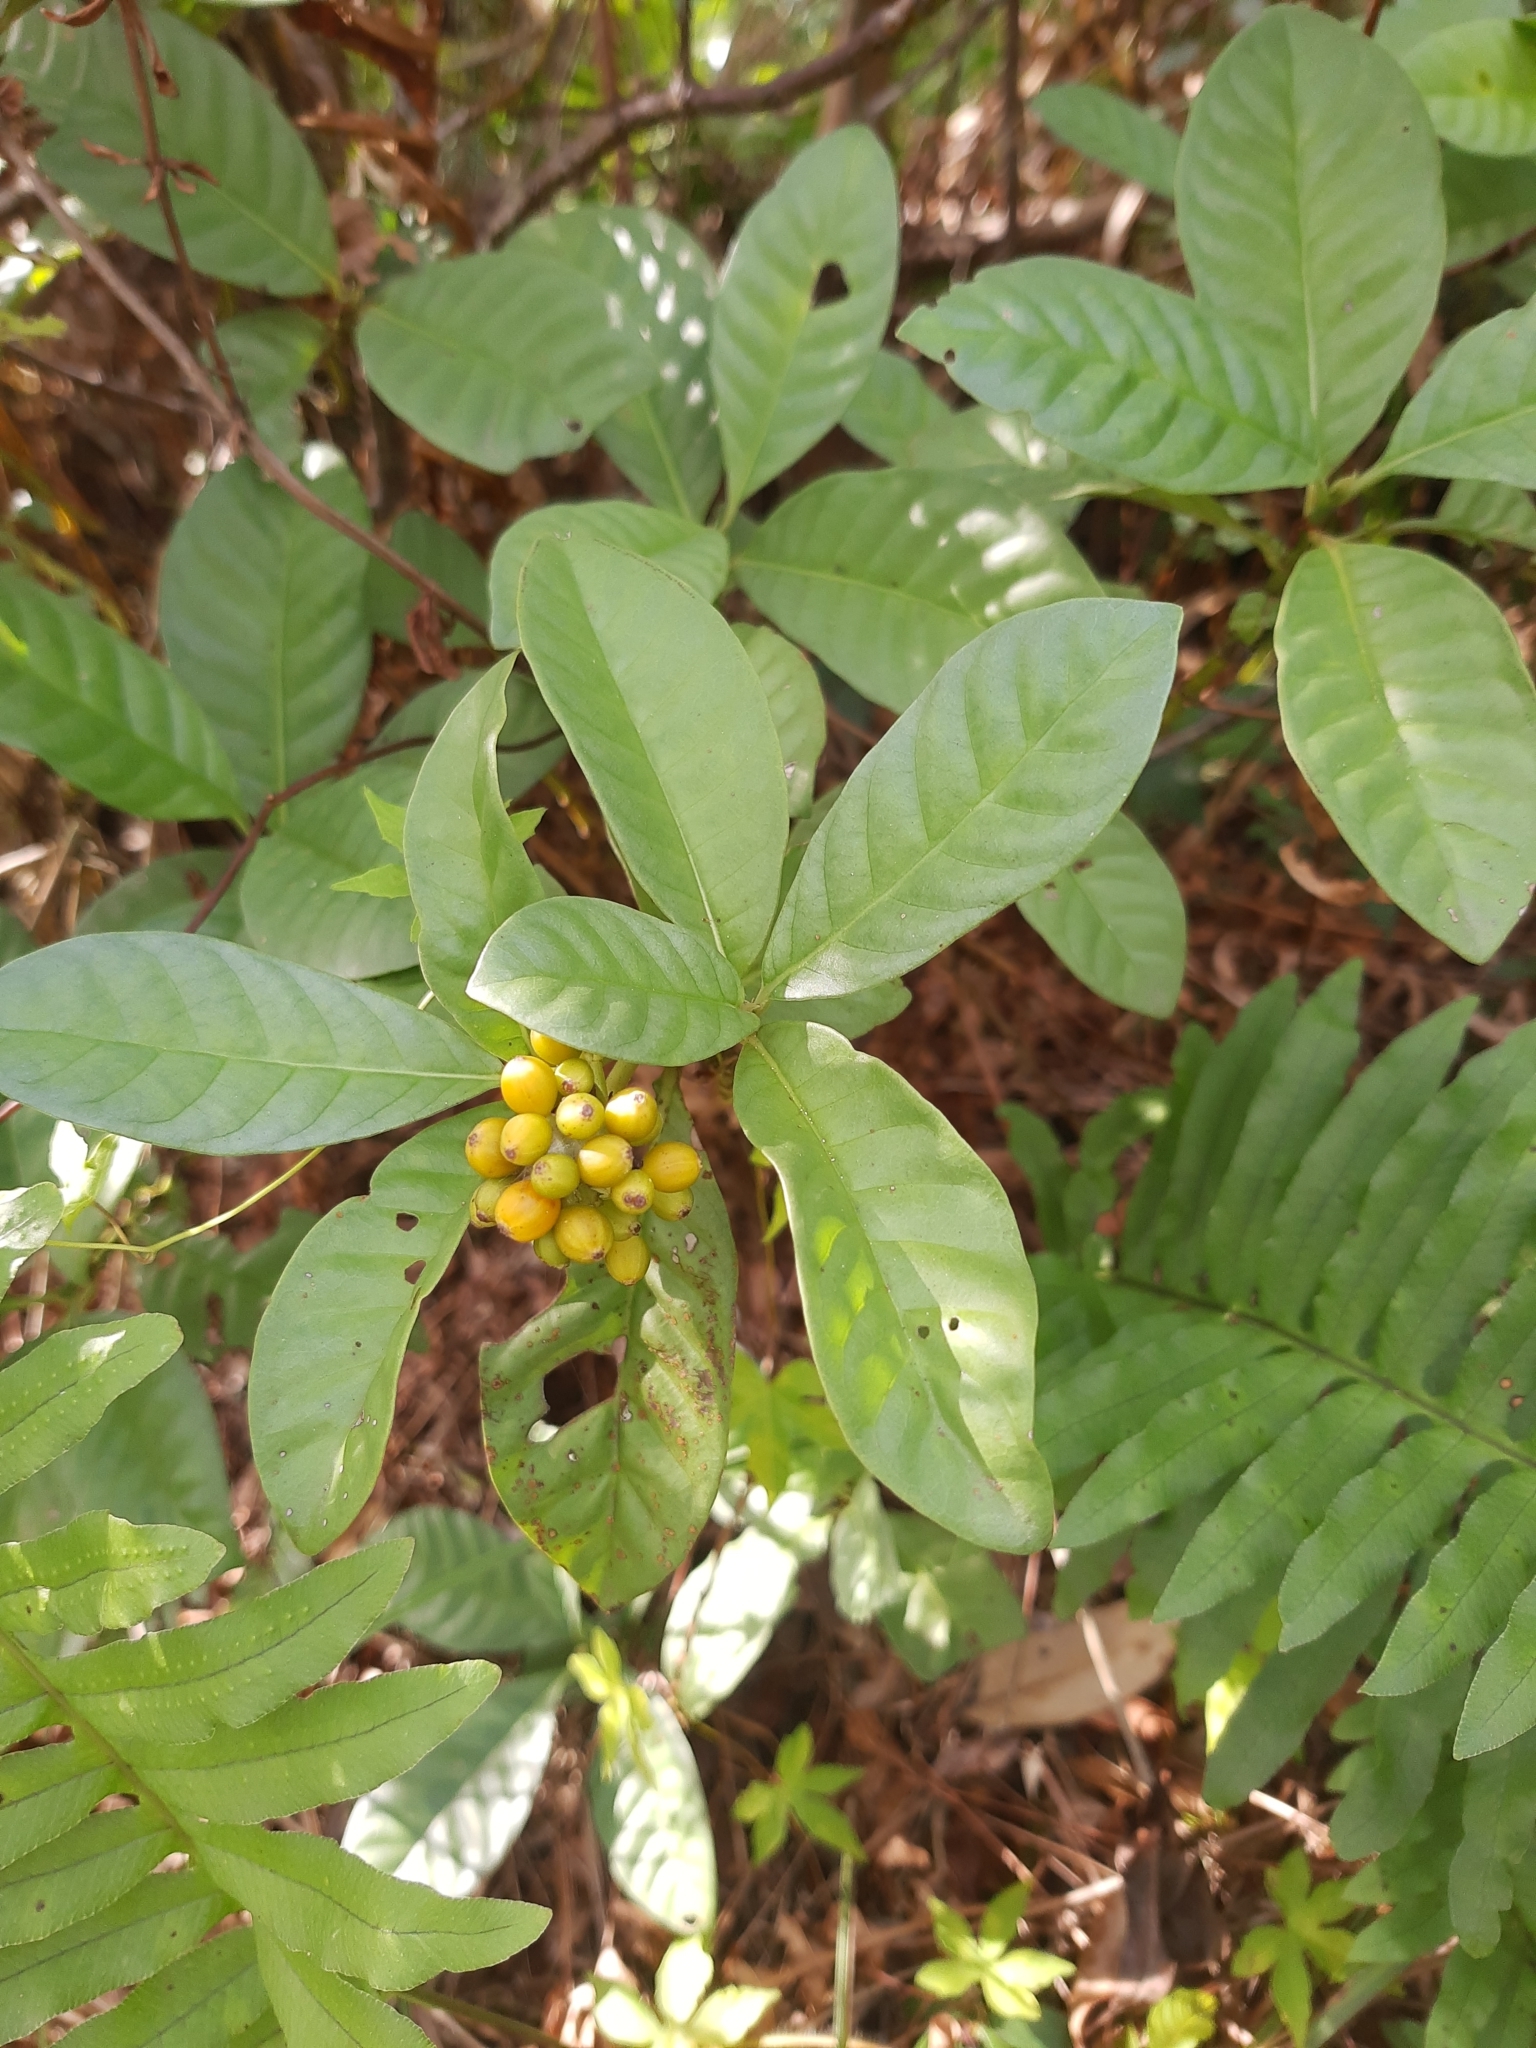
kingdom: Plantae
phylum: Tracheophyta
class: Magnoliopsida
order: Gentianales
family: Rubiaceae
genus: Psychotria
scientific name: Psychotria carthagenensis
